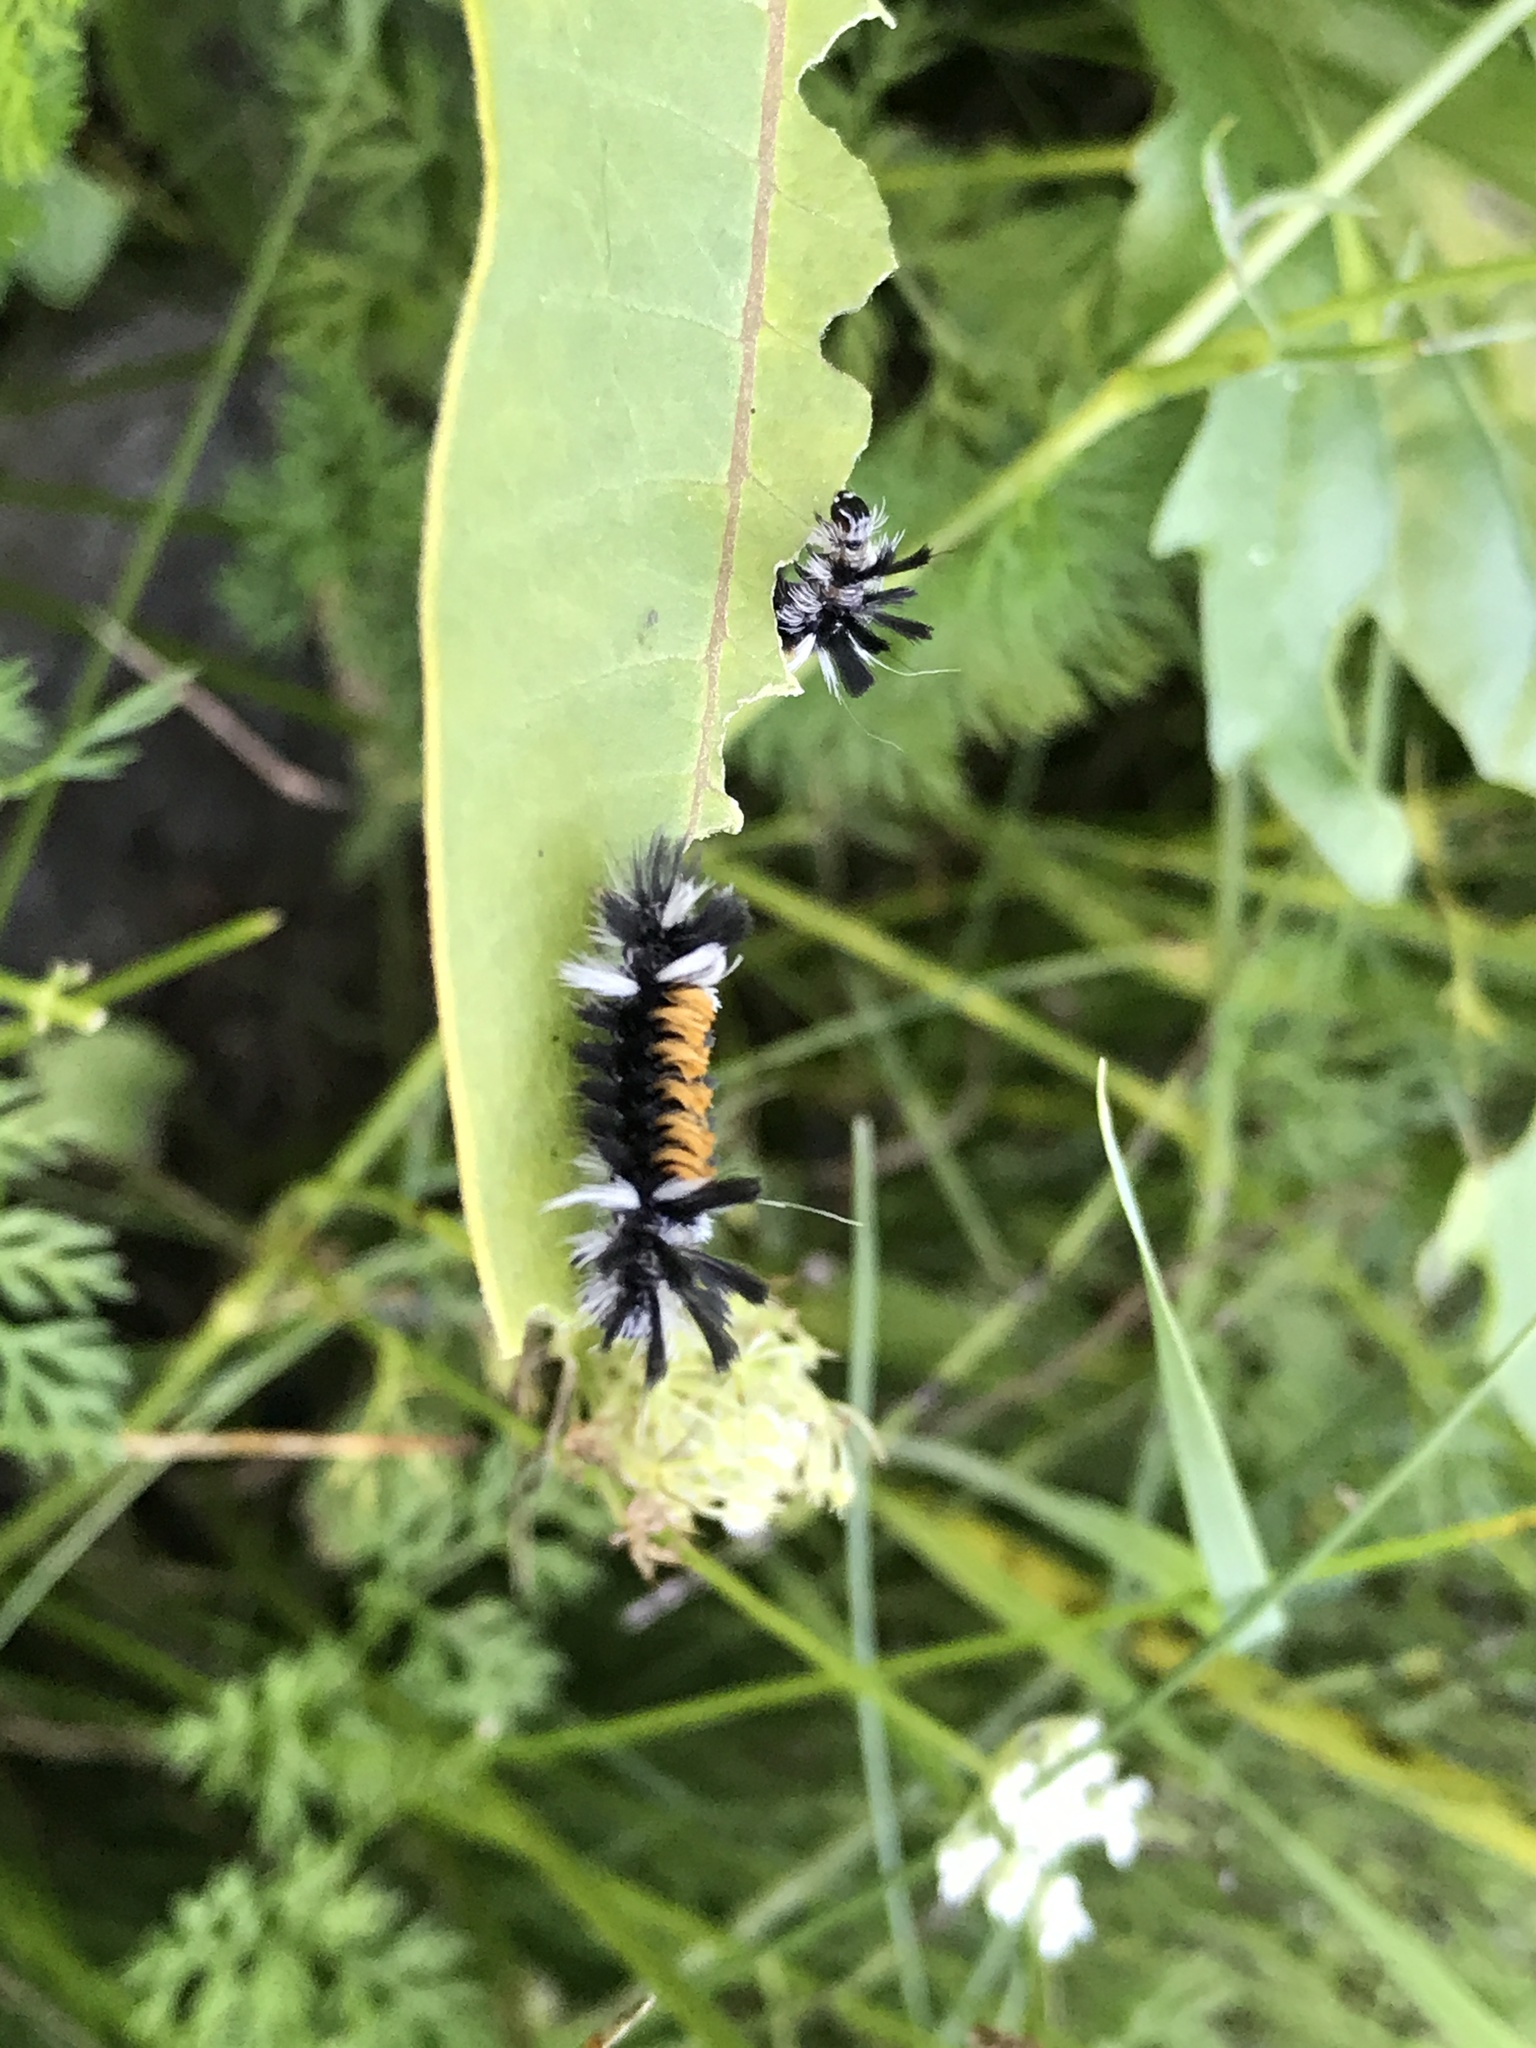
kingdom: Animalia
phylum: Arthropoda
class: Insecta
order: Lepidoptera
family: Erebidae
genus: Euchaetes
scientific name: Euchaetes egle
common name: Milkweed tussock moth
